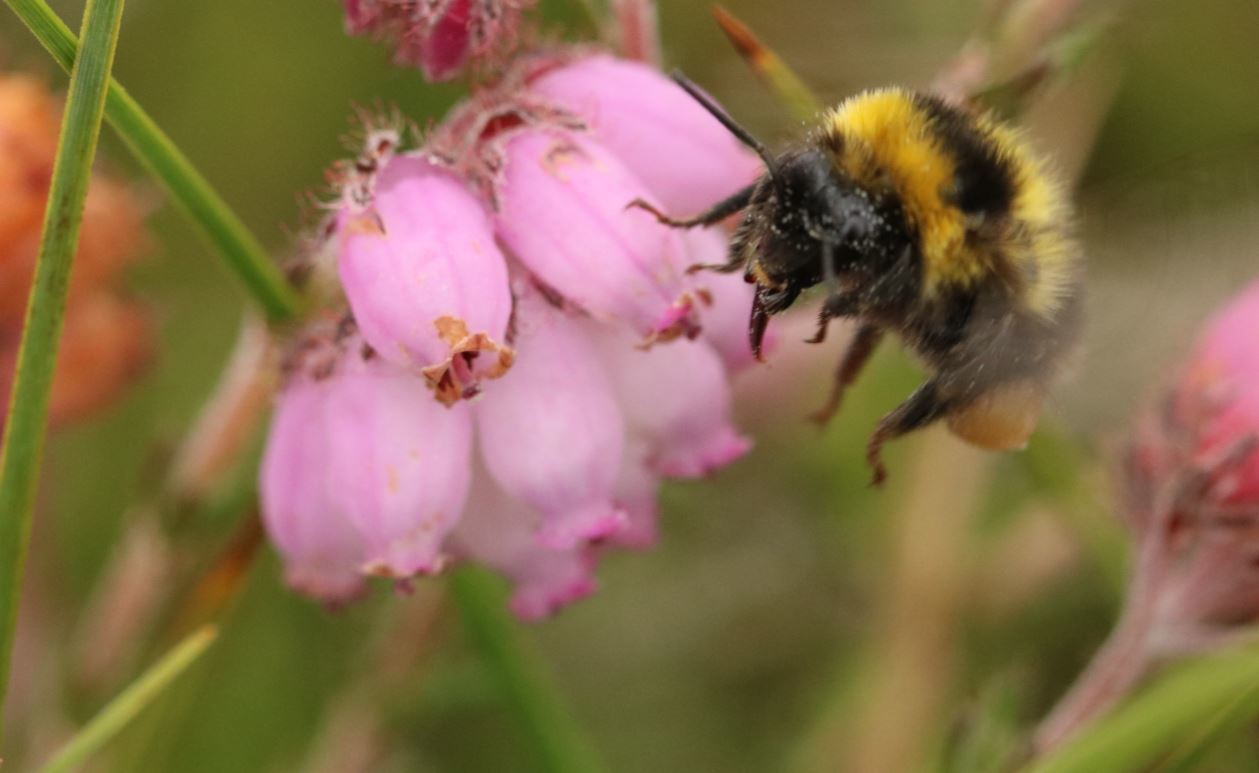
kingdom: Animalia
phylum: Arthropoda
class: Insecta
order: Hymenoptera
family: Apidae
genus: Bombus
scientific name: Bombus jonellus
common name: Heath humble-bee
